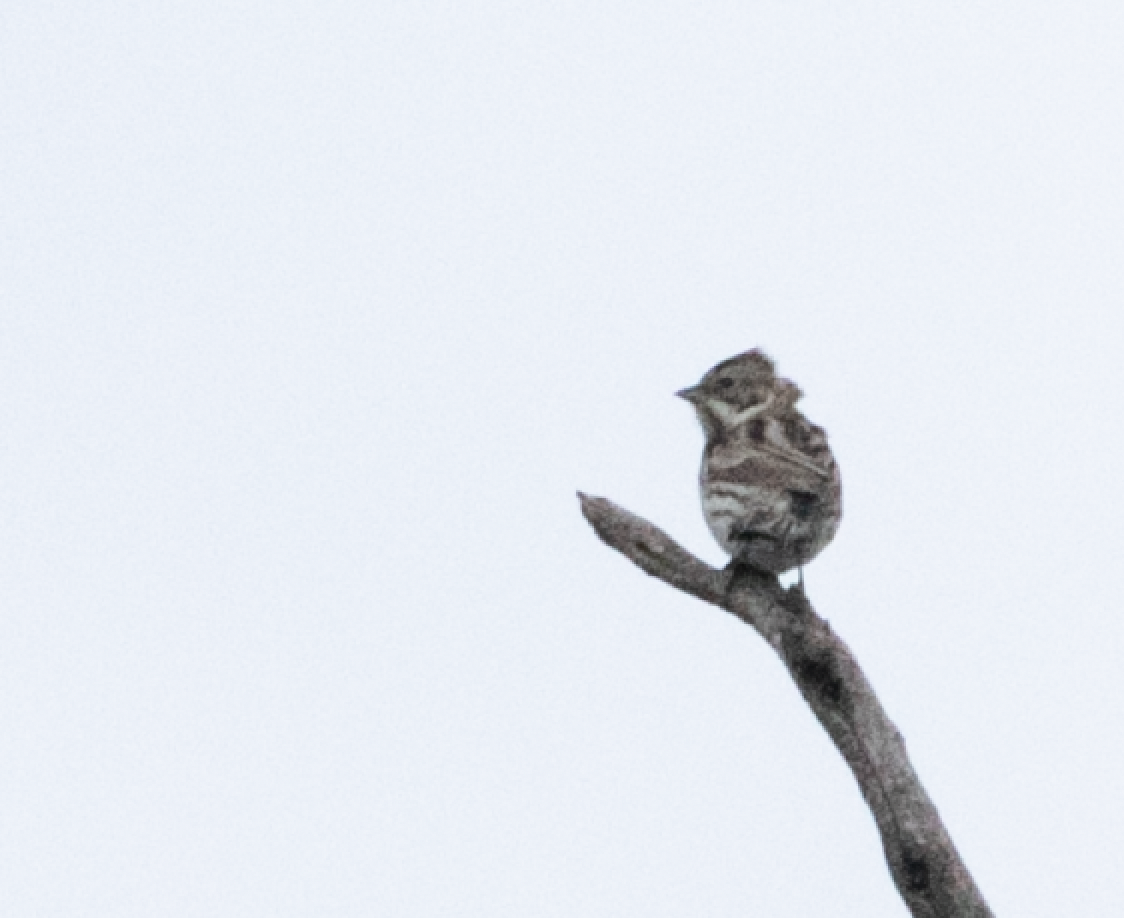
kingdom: Animalia
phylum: Chordata
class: Aves
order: Passeriformes
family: Emberizidae
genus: Emberiza
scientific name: Emberiza schoeniclus
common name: Reed bunting
